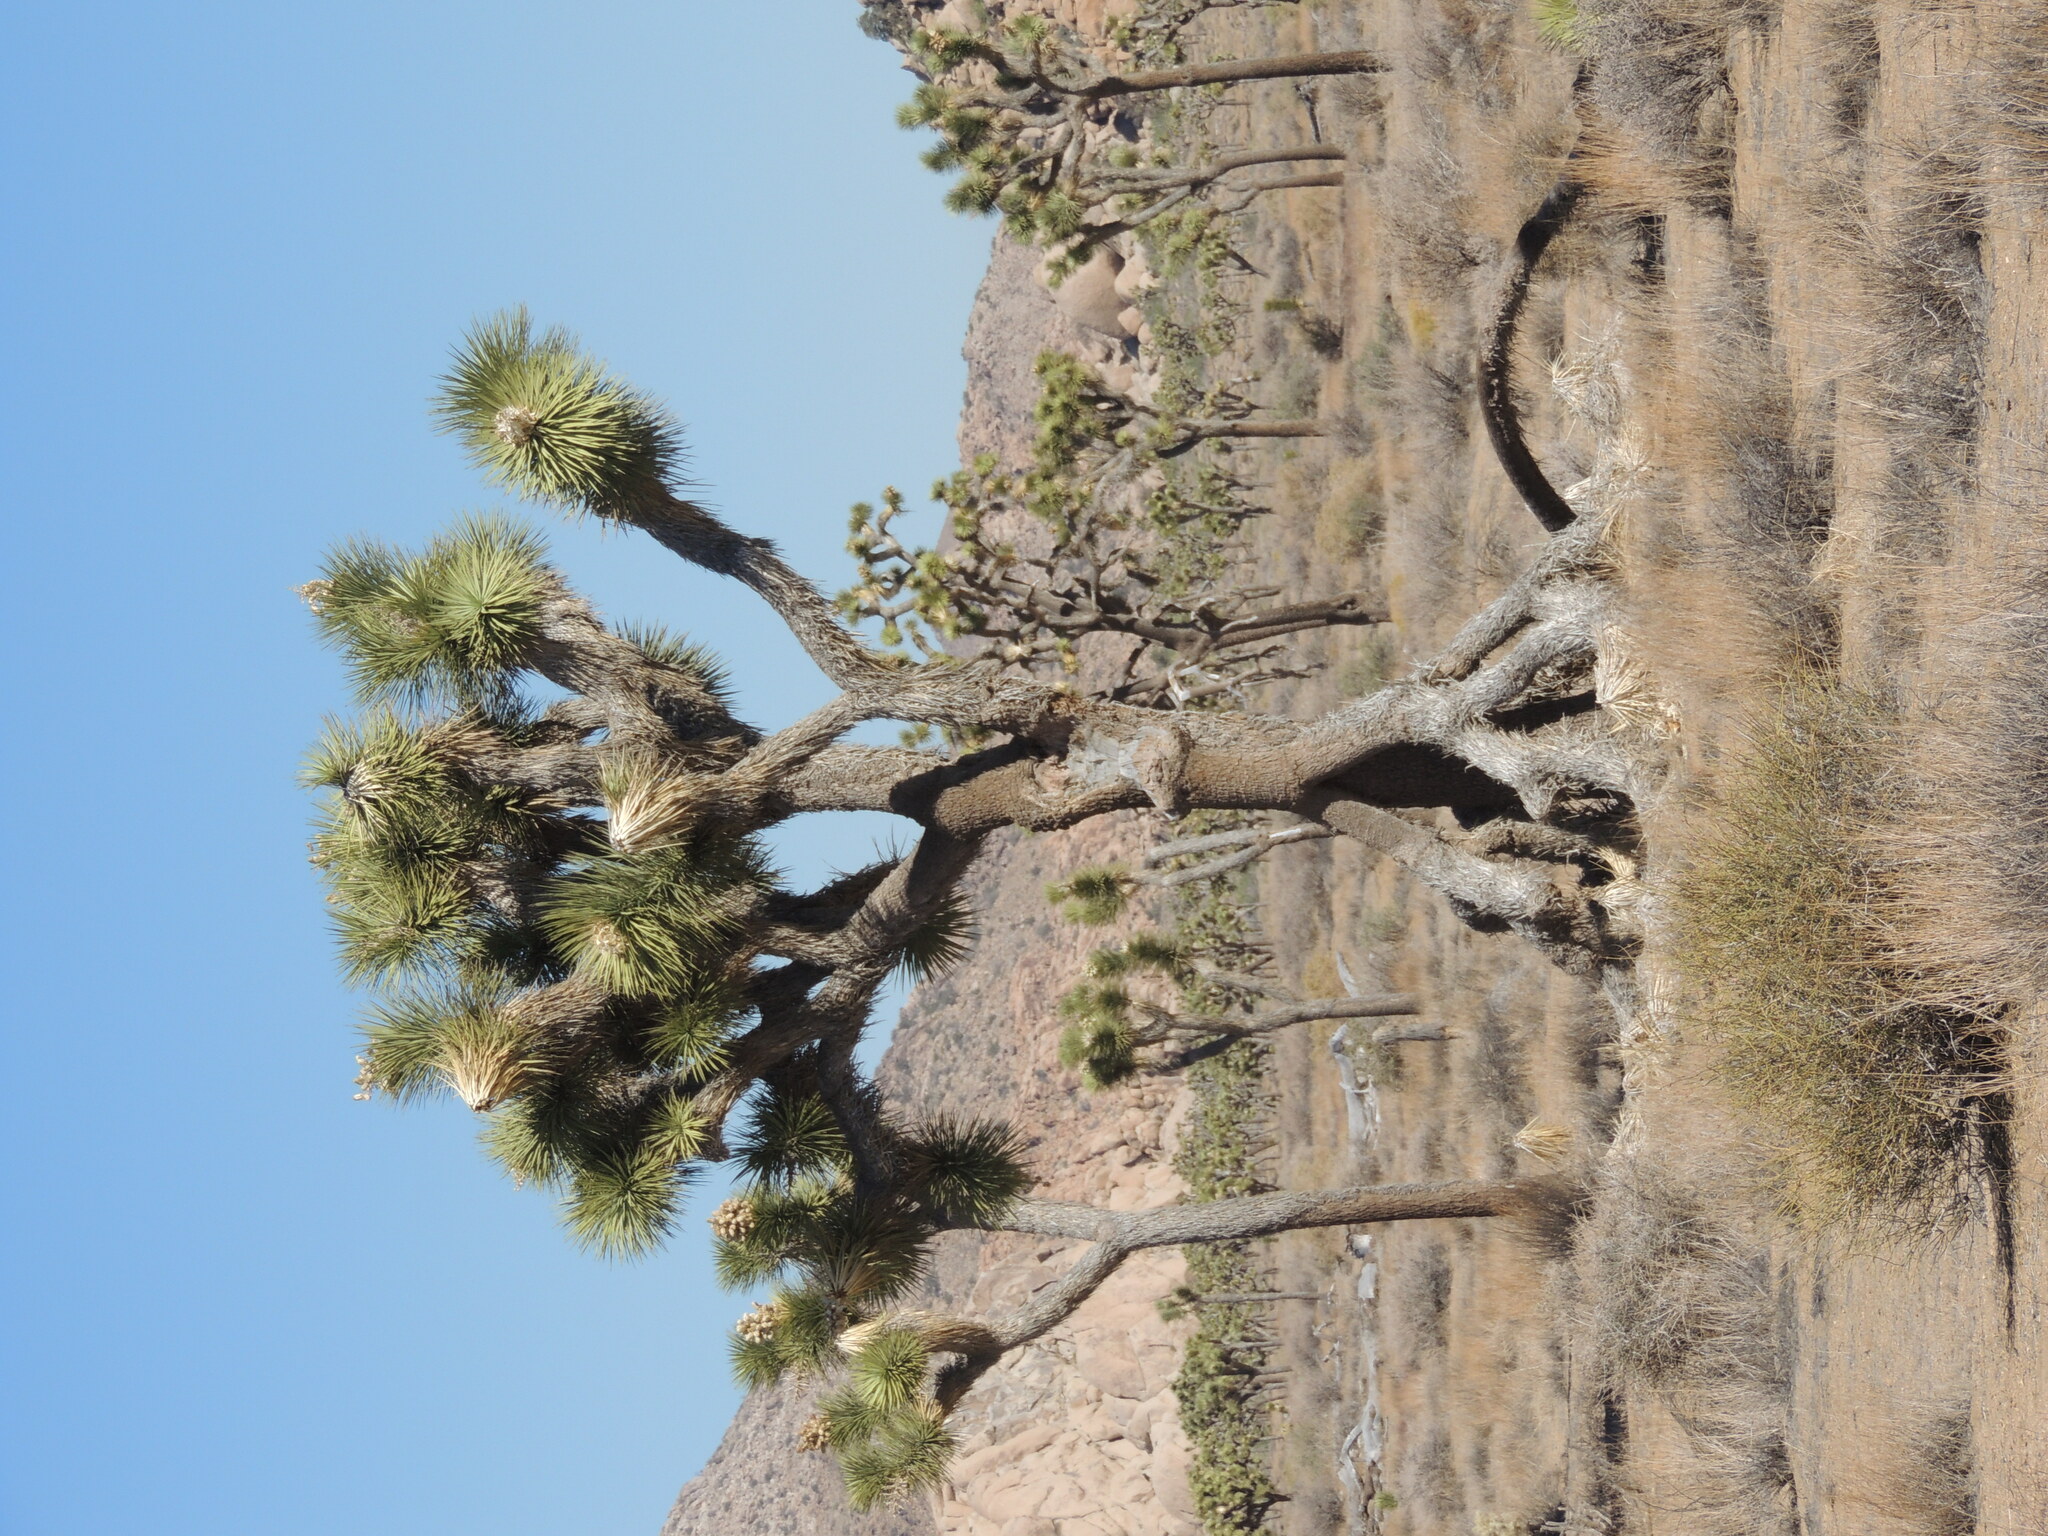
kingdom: Plantae
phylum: Tracheophyta
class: Liliopsida
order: Asparagales
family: Asparagaceae
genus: Yucca
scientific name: Yucca brevifolia
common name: Joshua tree
